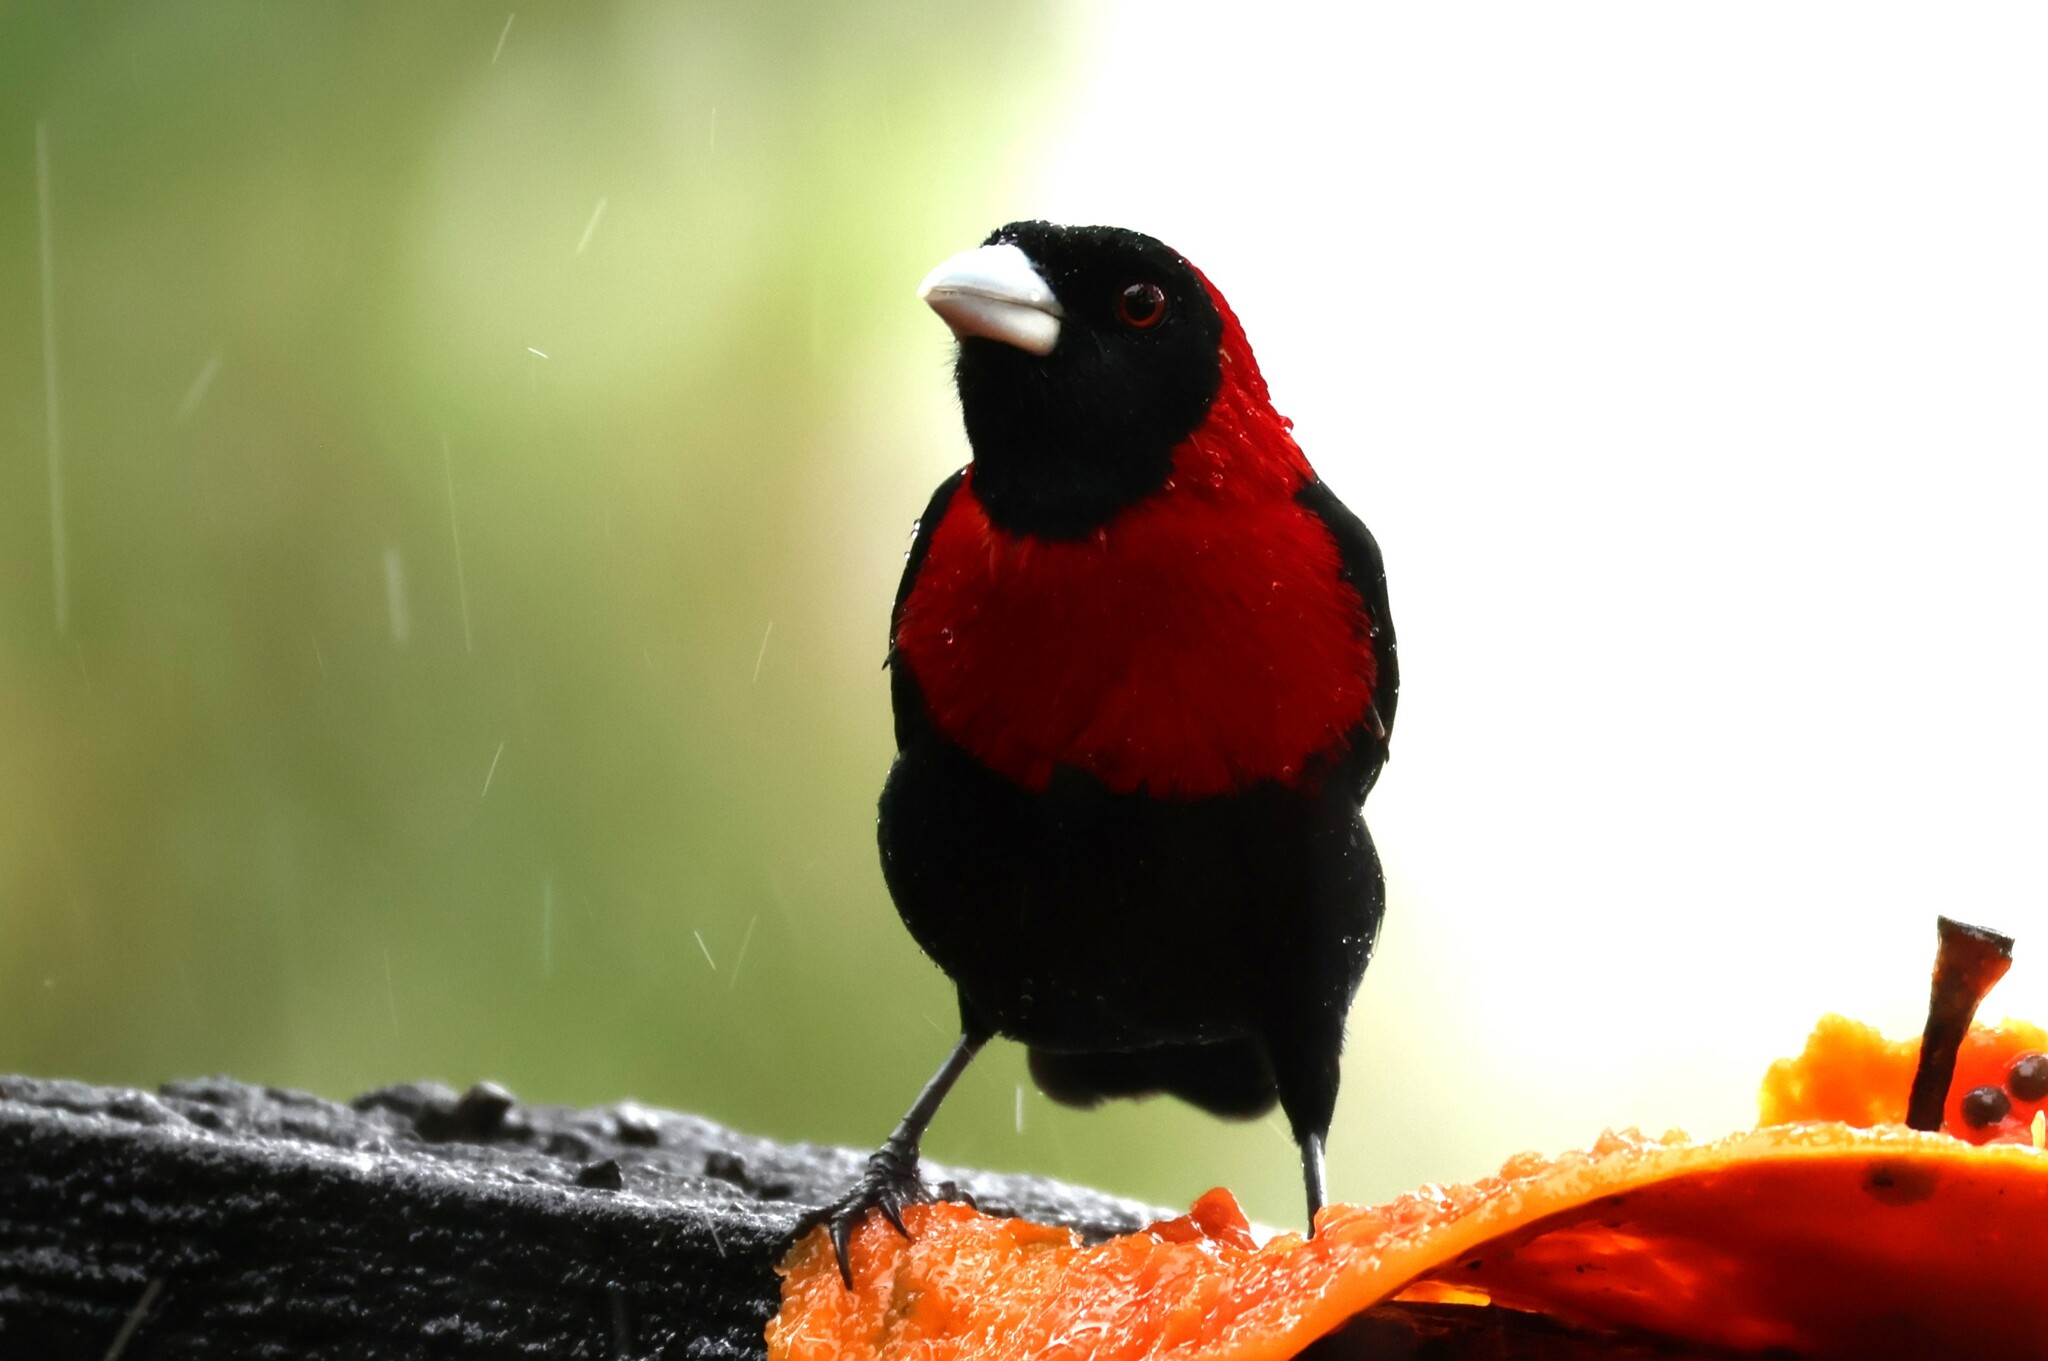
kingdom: Animalia
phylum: Chordata
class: Aves
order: Passeriformes
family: Thraupidae
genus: Ramphocelus
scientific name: Ramphocelus sanguinolentus
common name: Crimson-collared tanager
